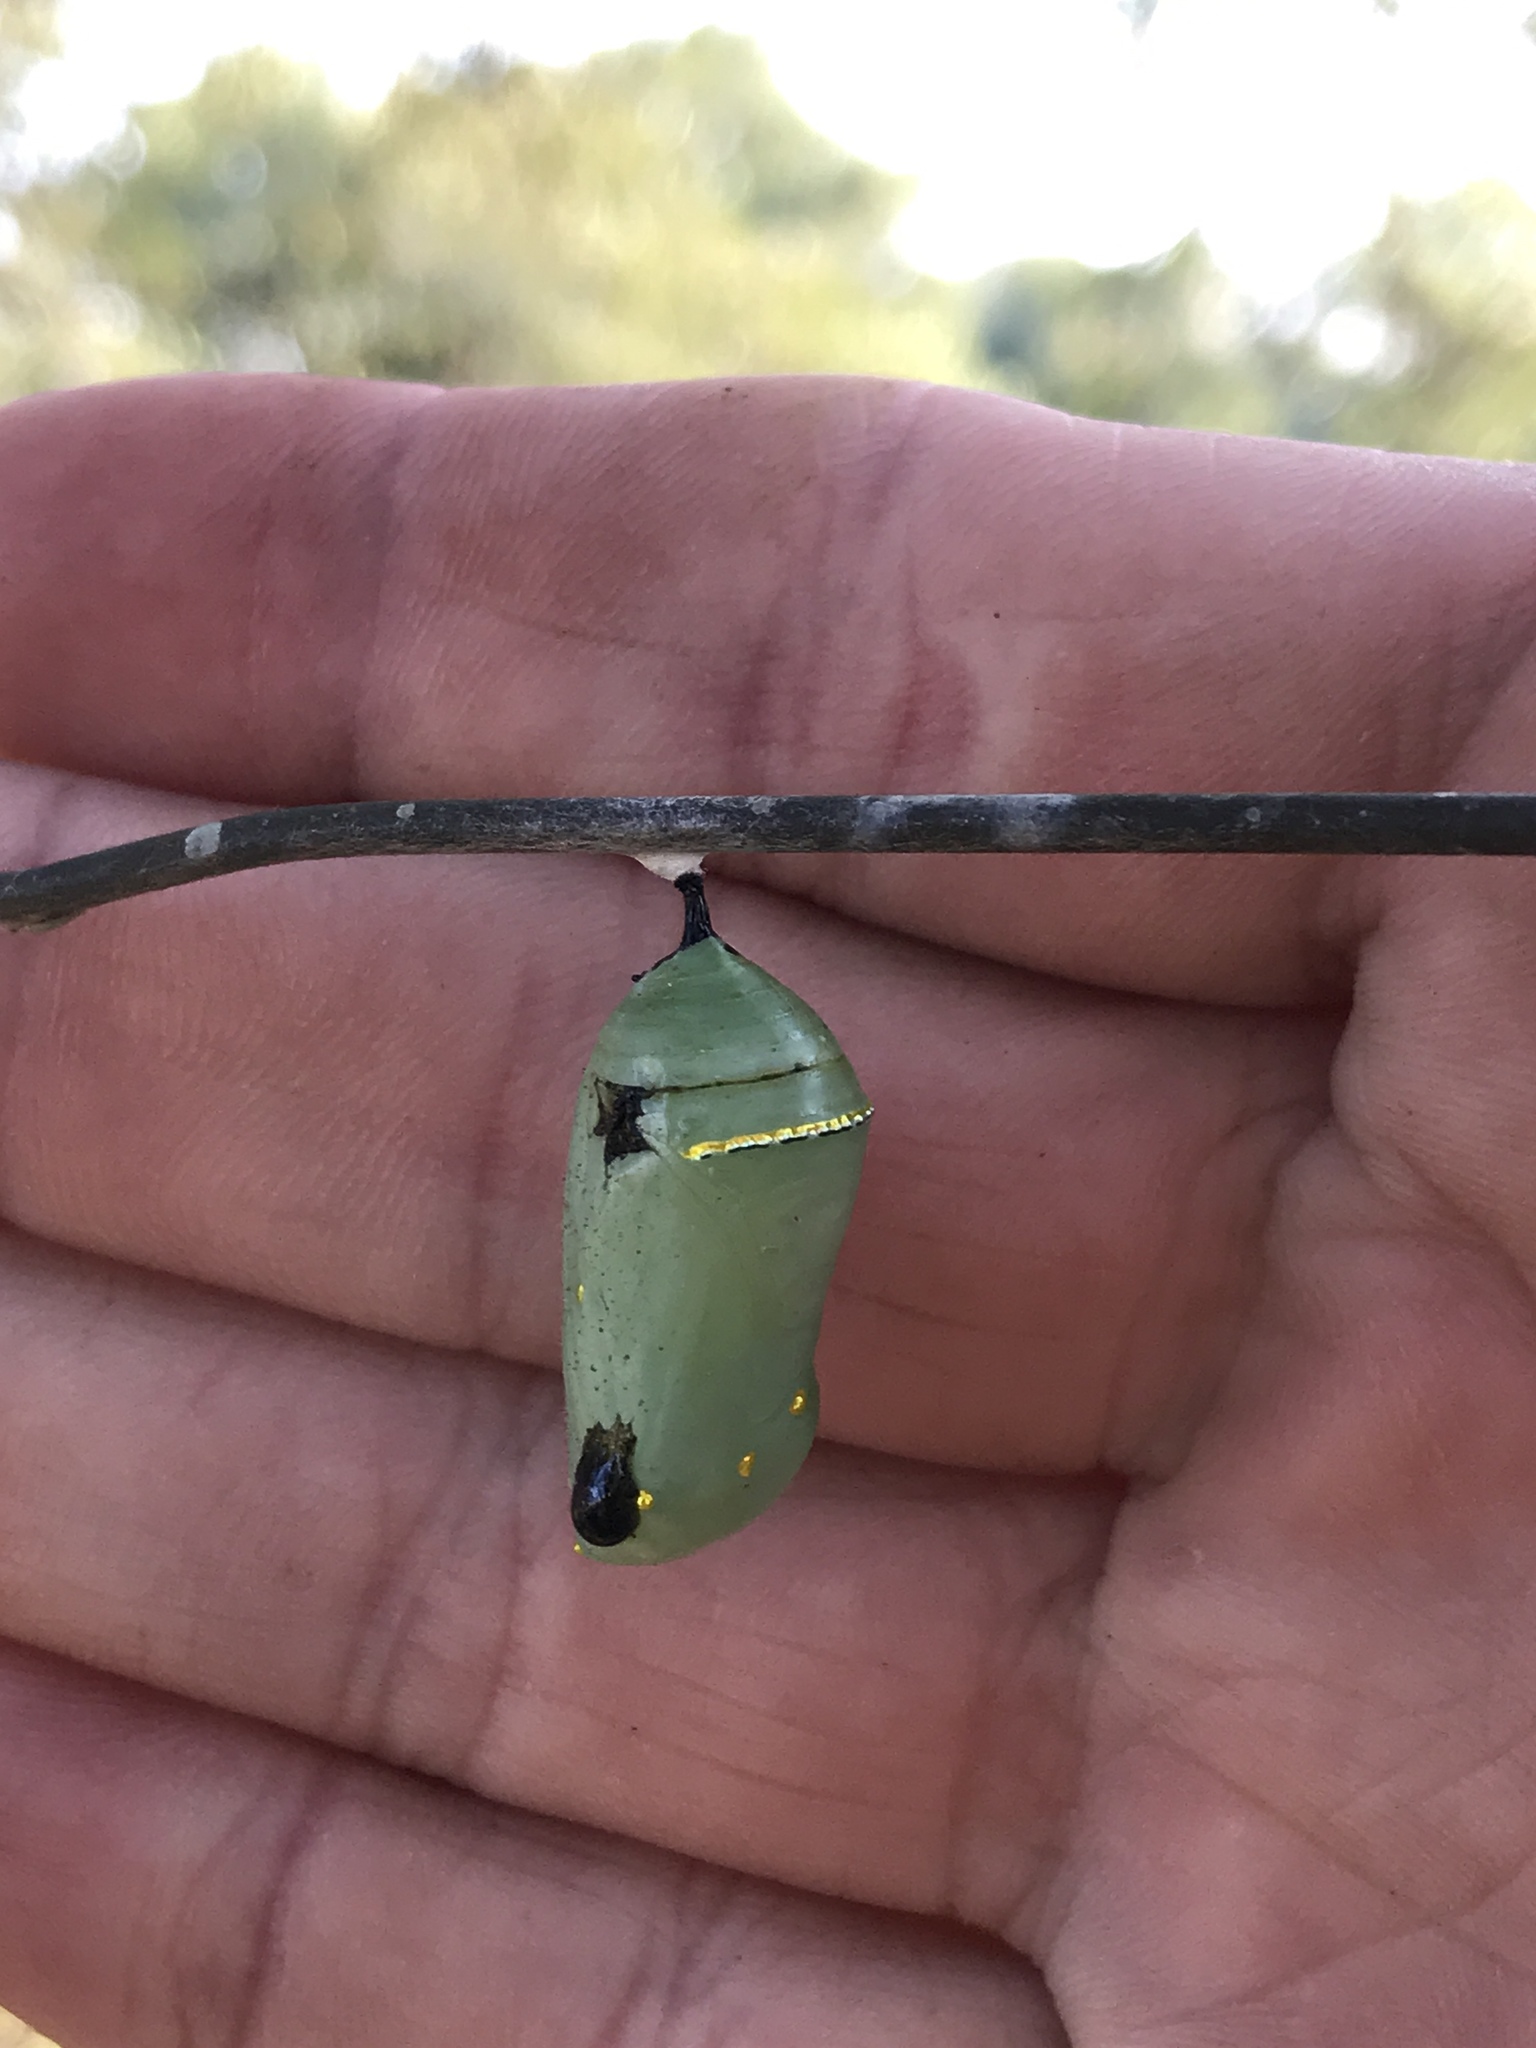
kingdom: Animalia
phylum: Arthropoda
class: Insecta
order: Lepidoptera
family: Nymphalidae
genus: Danaus
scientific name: Danaus plexippus
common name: Monarch
